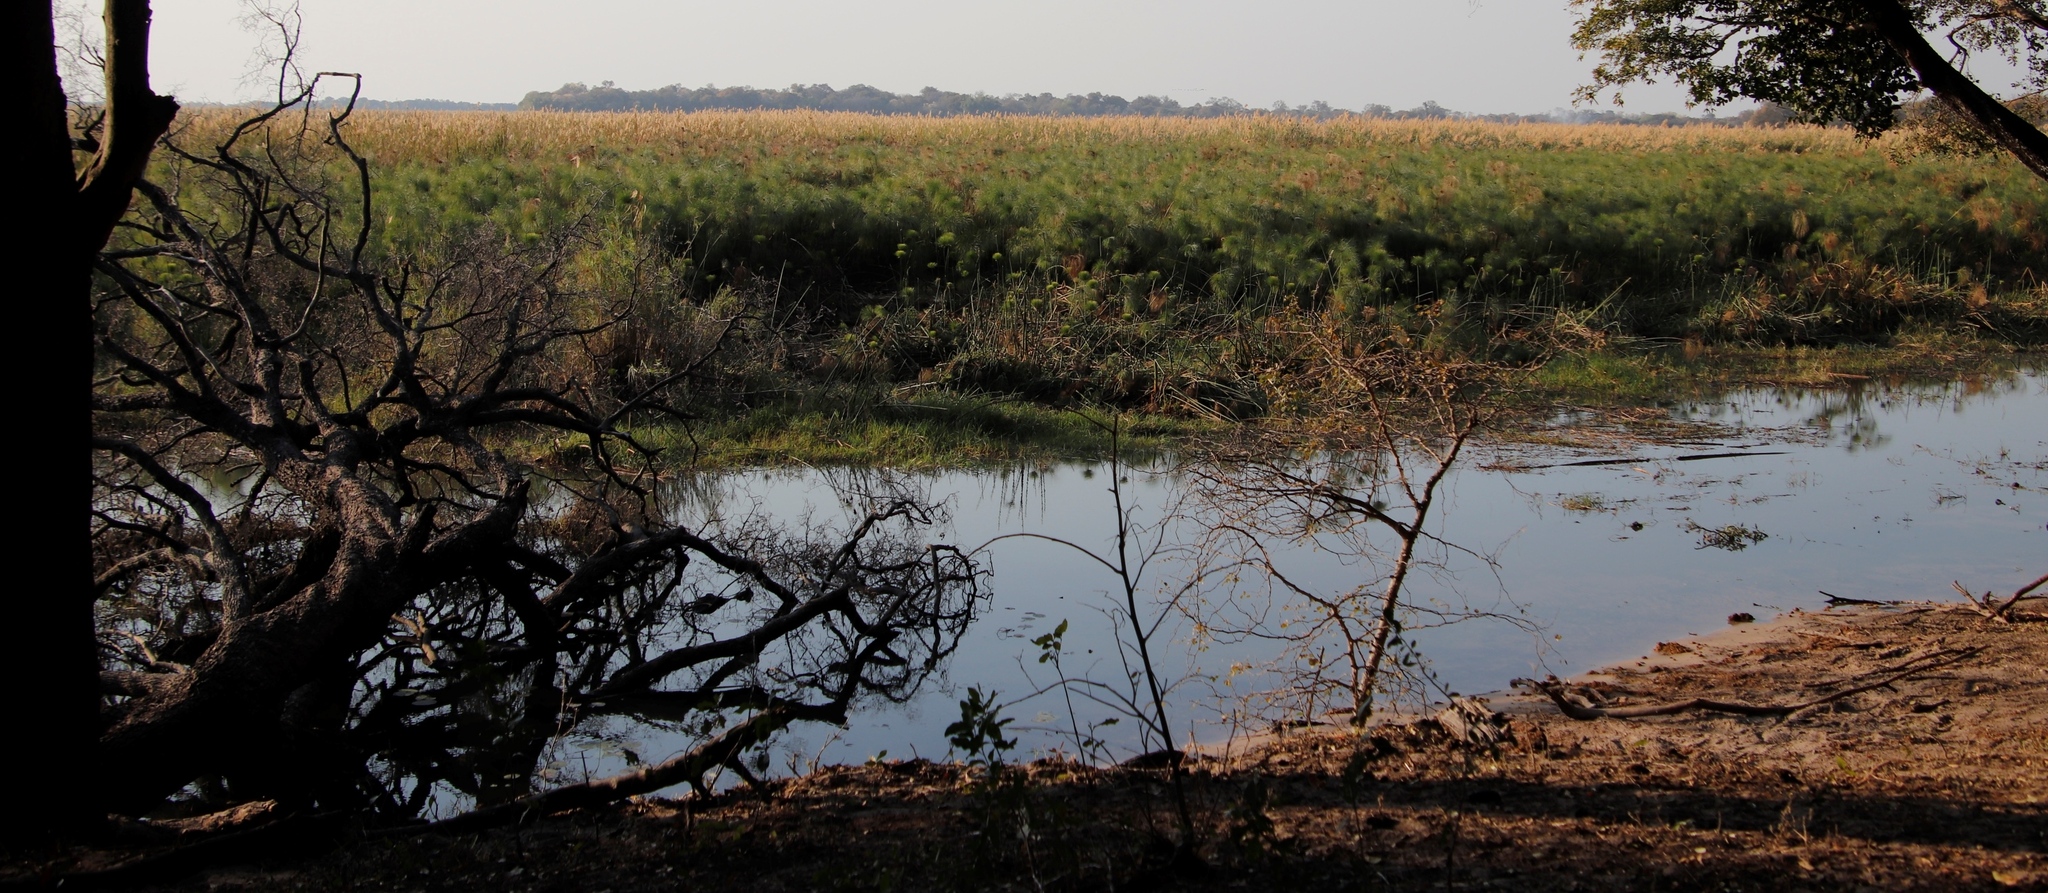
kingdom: Plantae
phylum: Tracheophyta
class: Liliopsida
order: Poales
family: Cyperaceae
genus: Cyperus
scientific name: Cyperus papyrus
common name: Papyrus
